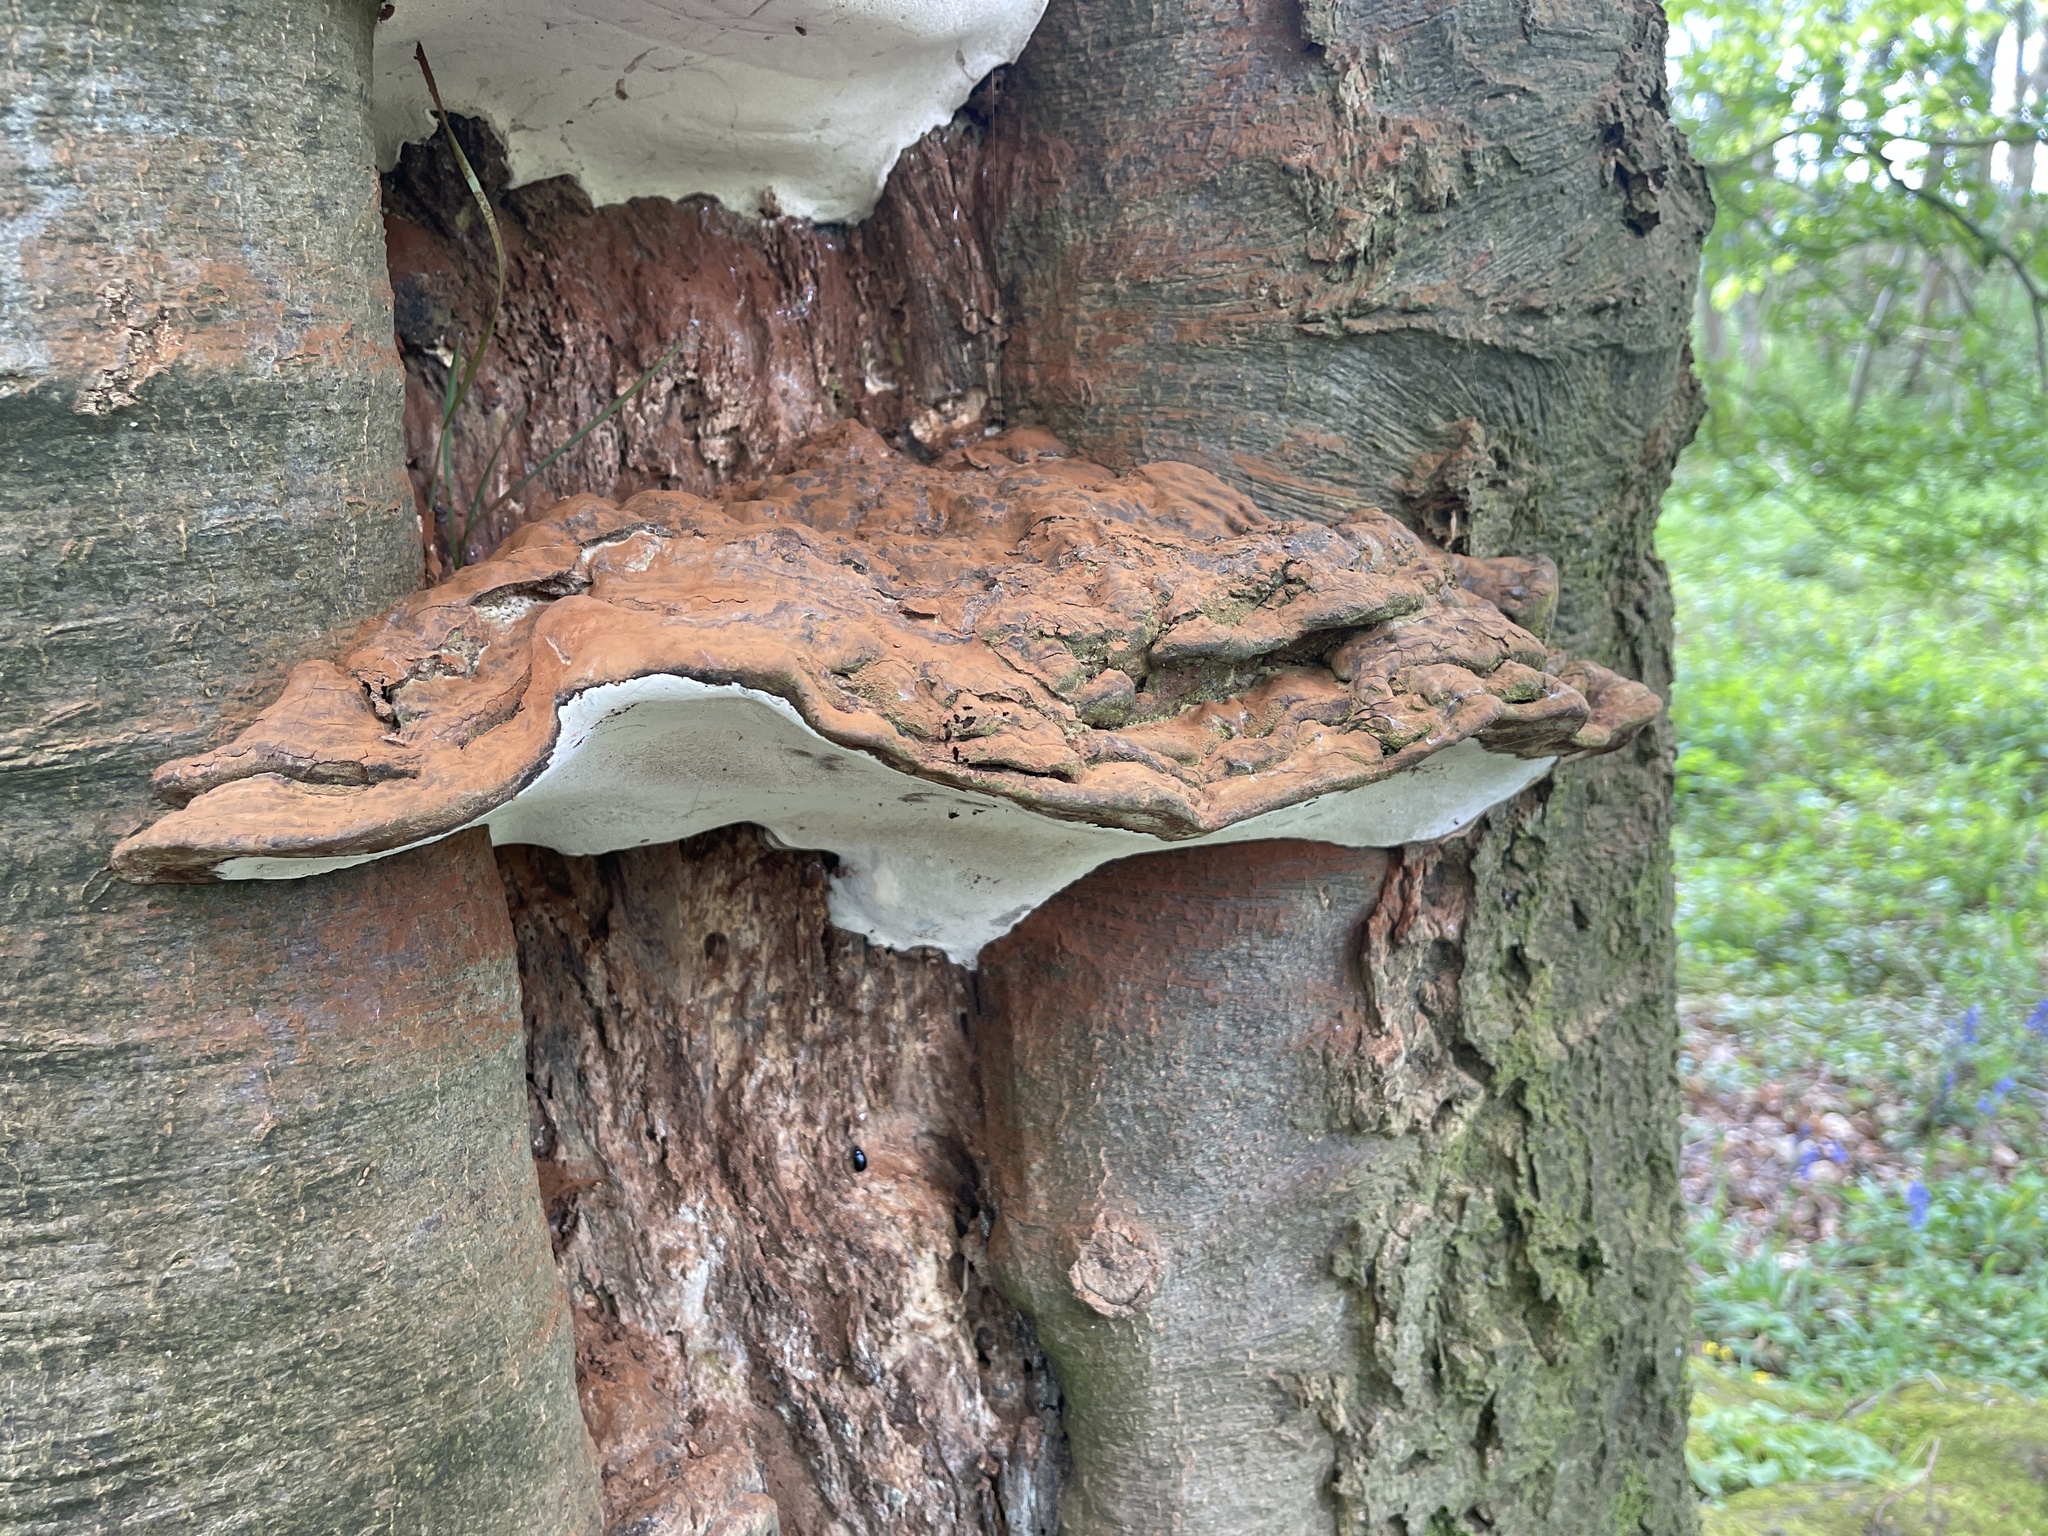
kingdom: Fungi
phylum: Basidiomycota
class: Agaricomycetes
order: Polyporales
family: Polyporaceae
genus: Ganoderma
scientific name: Ganoderma applanatum
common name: Artist's bracket
